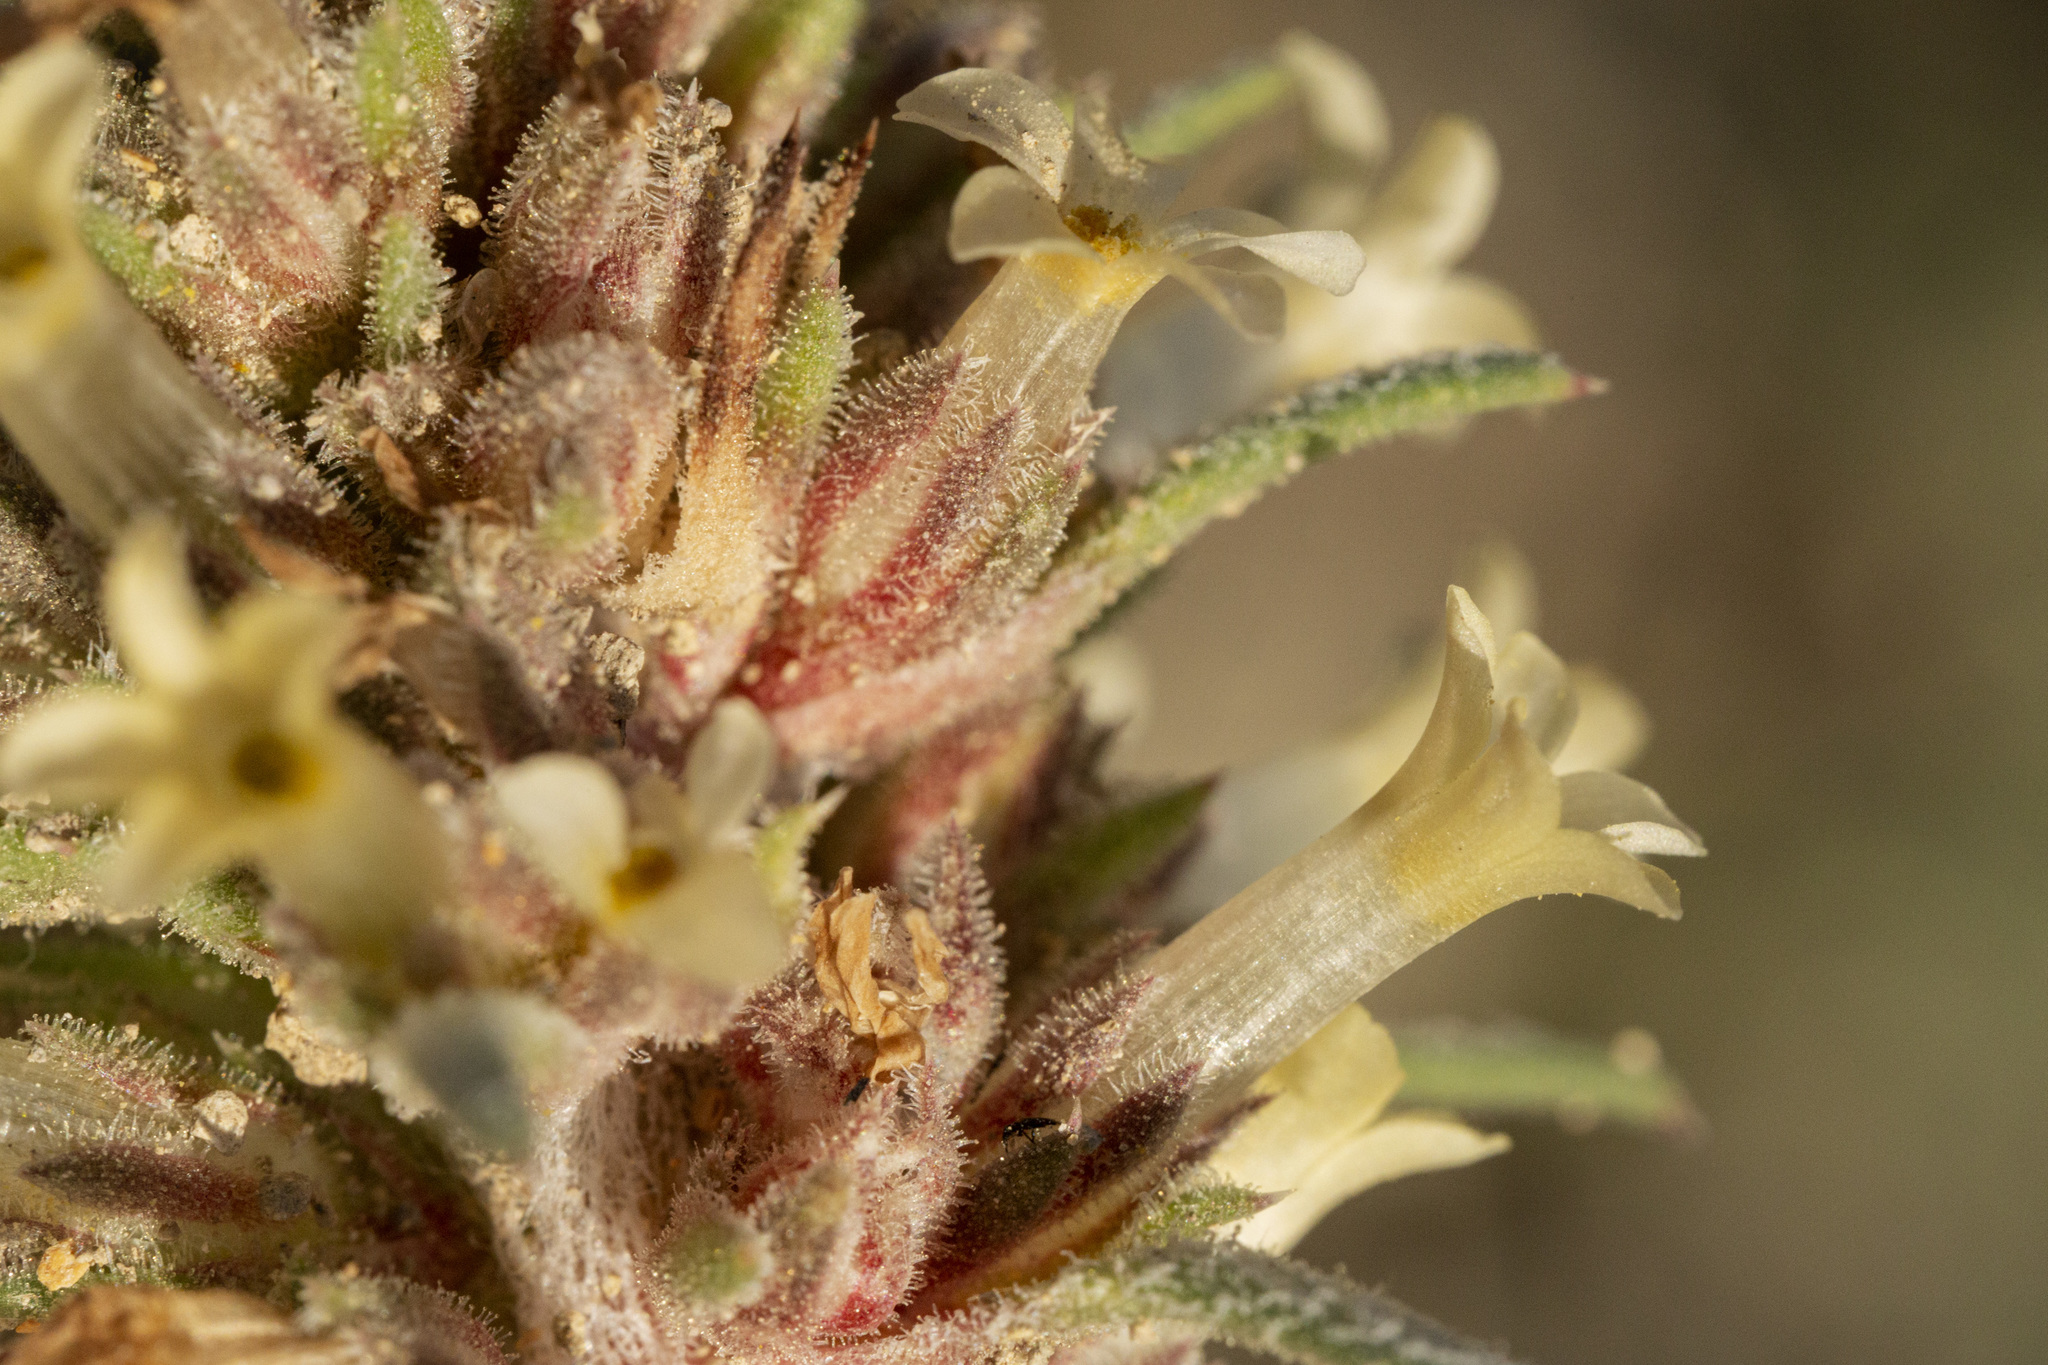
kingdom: Plantae
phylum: Tracheophyta
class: Magnoliopsida
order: Ericales
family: Polemoniaceae
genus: Ipomopsis
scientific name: Ipomopsis spicata
